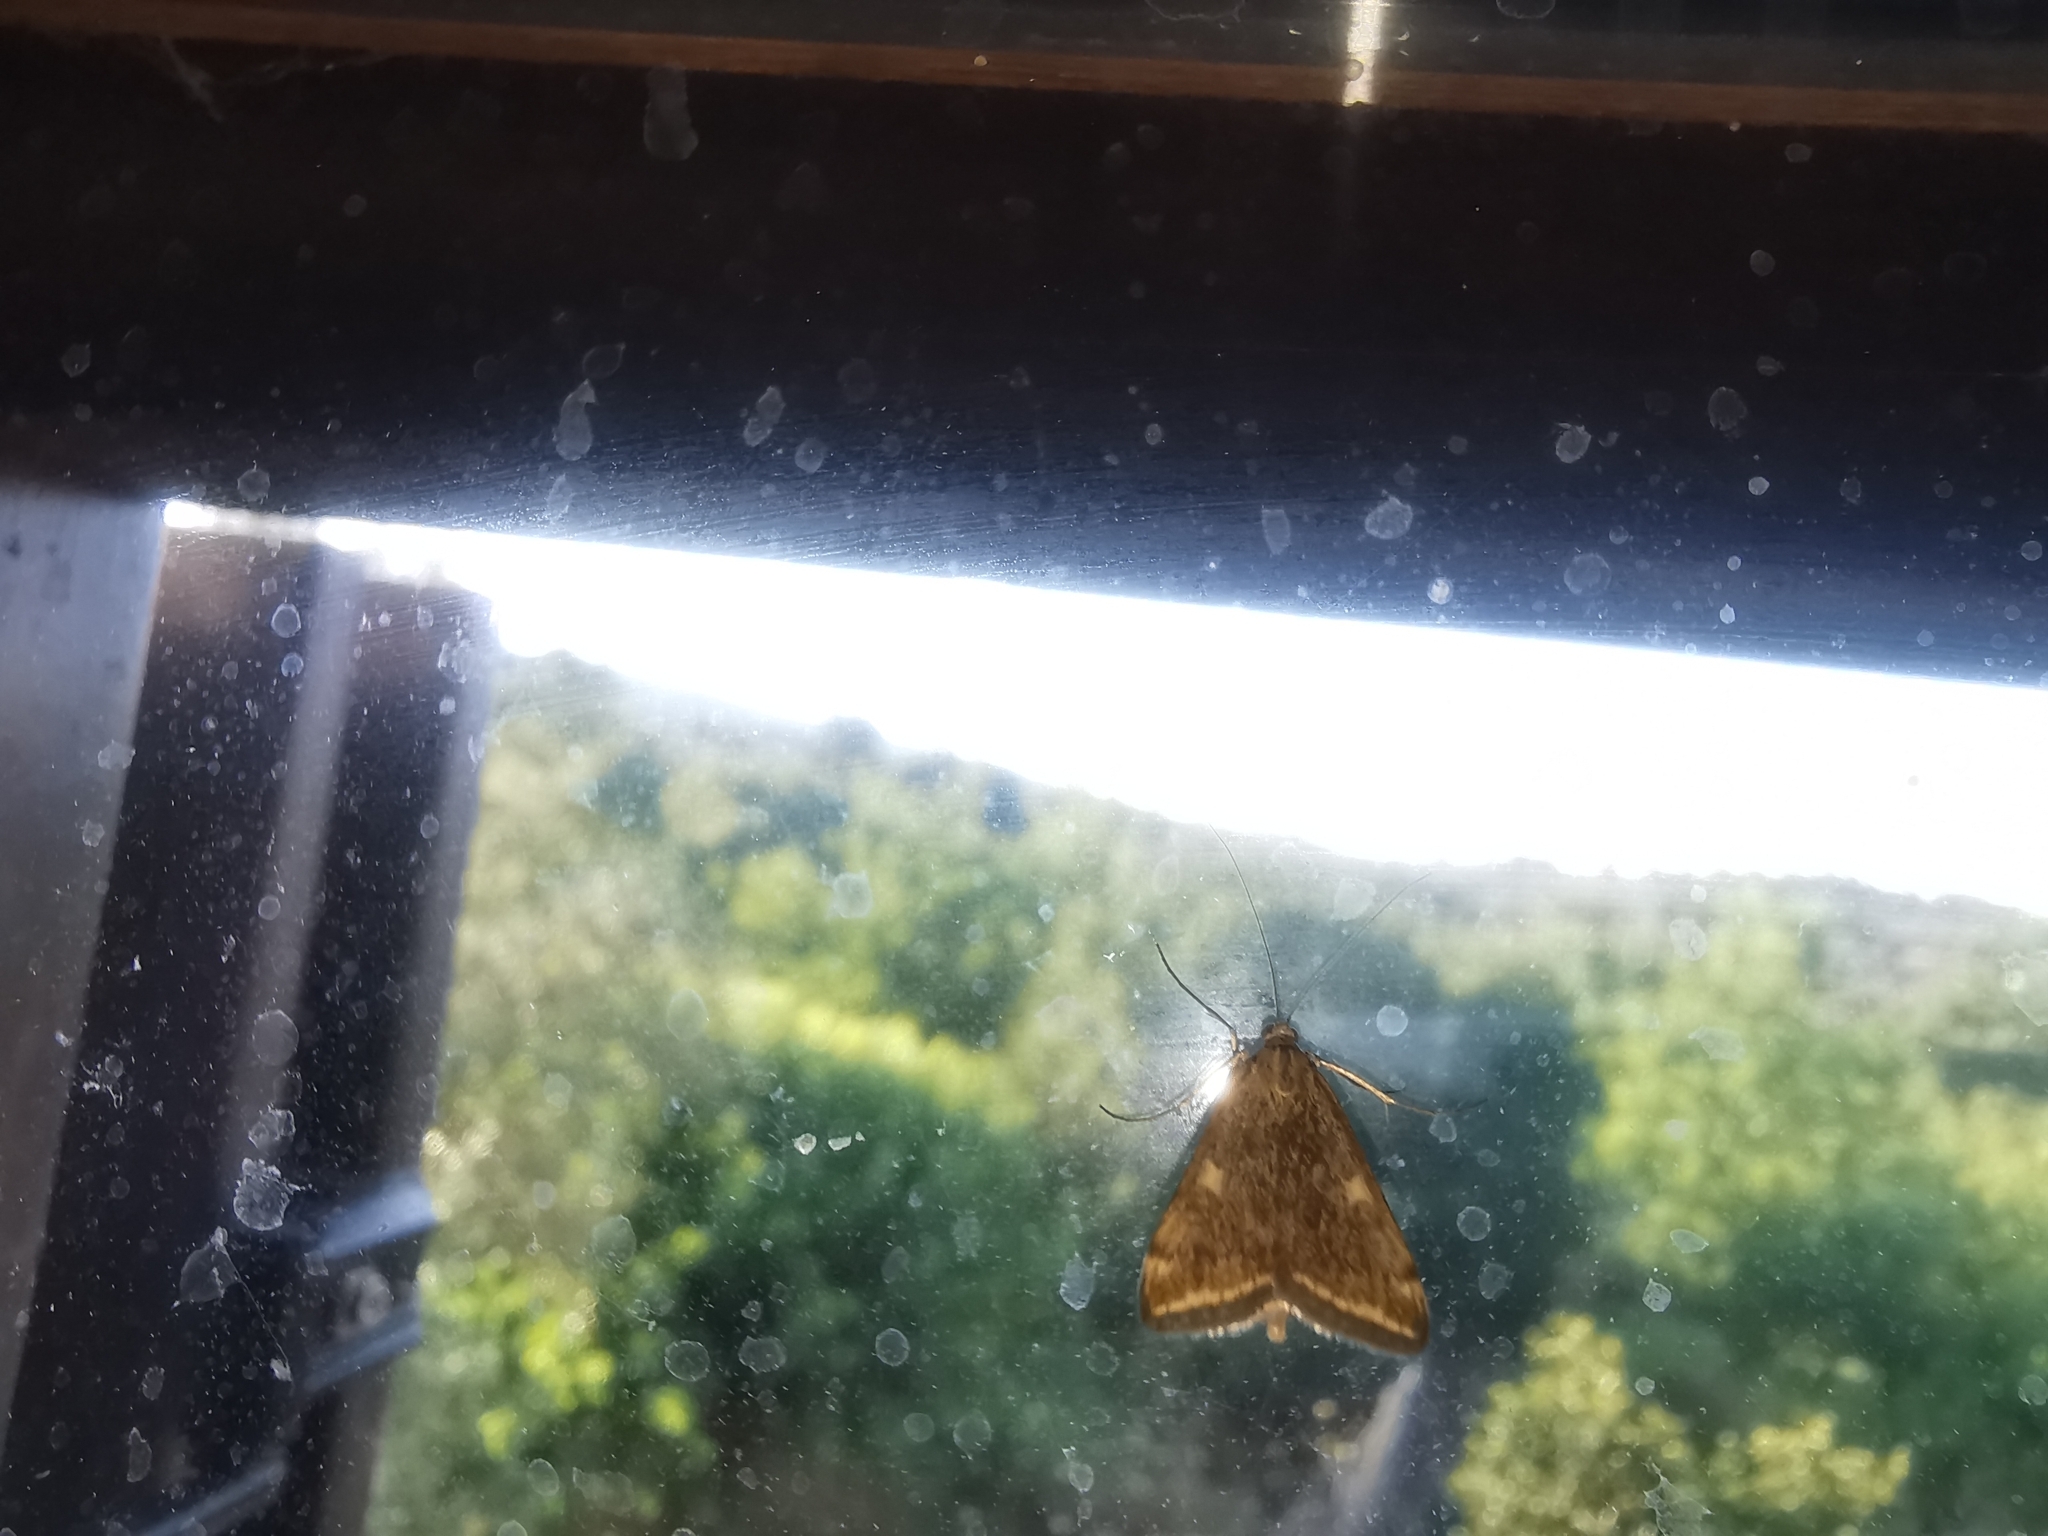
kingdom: Animalia
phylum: Arthropoda
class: Insecta
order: Lepidoptera
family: Crambidae
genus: Loxostege
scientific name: Loxostege sticticalis
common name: Crambid moth
